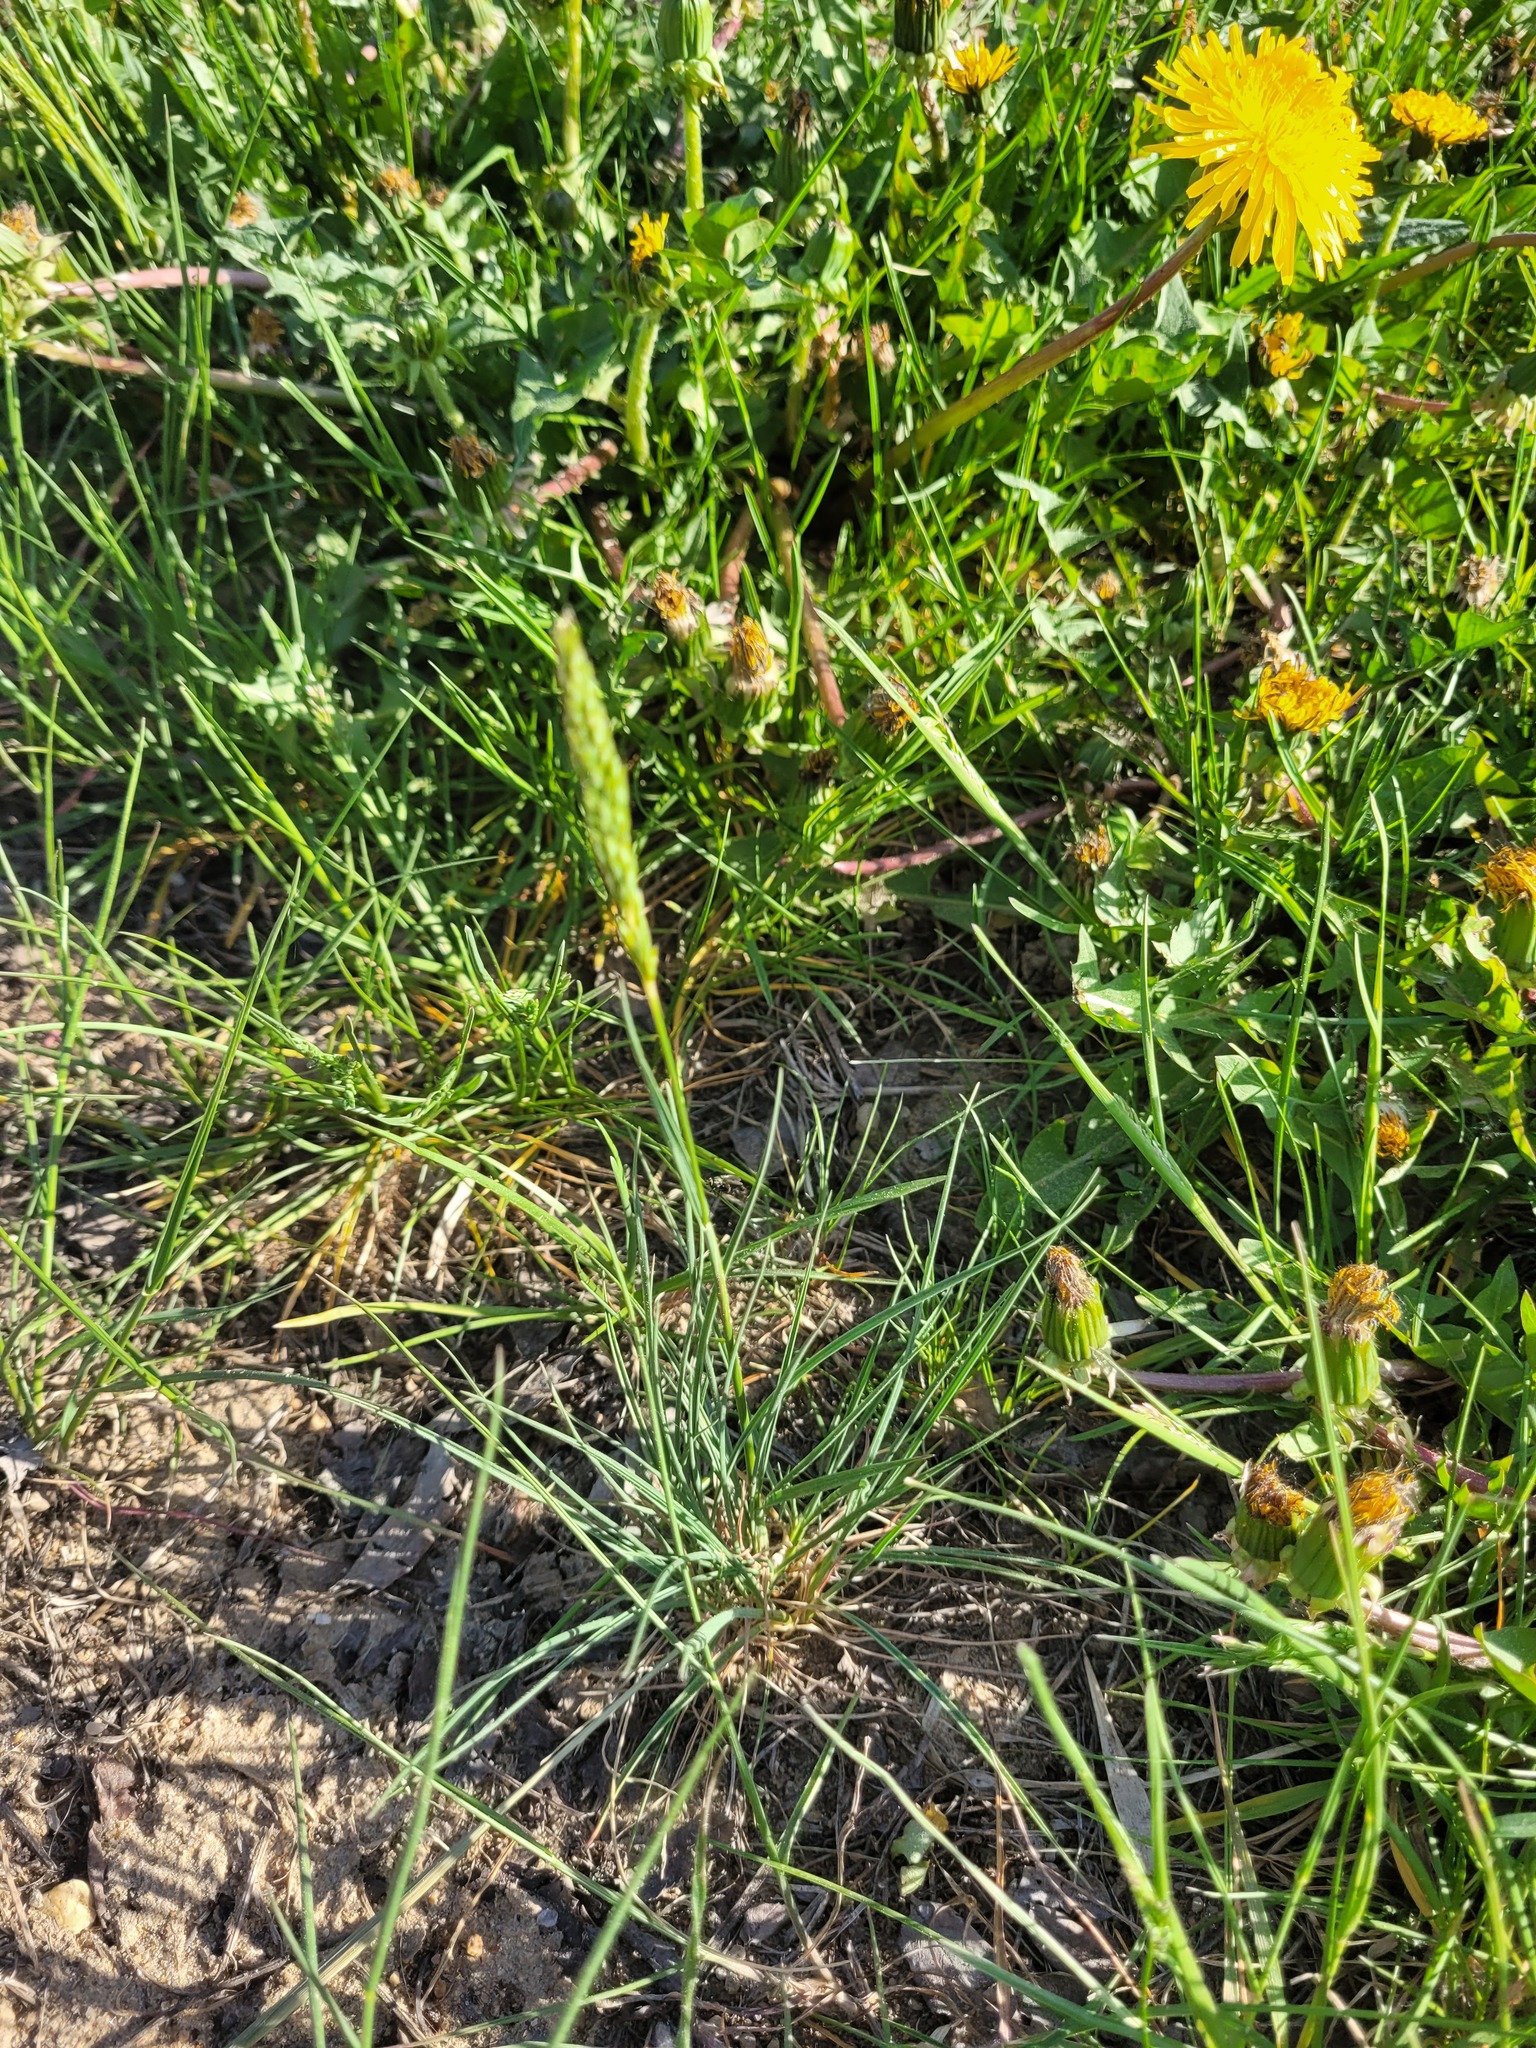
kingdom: Plantae
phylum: Tracheophyta
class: Liliopsida
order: Poales
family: Poaceae
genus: Koeleria
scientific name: Koeleria macrantha
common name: Crested hair-grass
